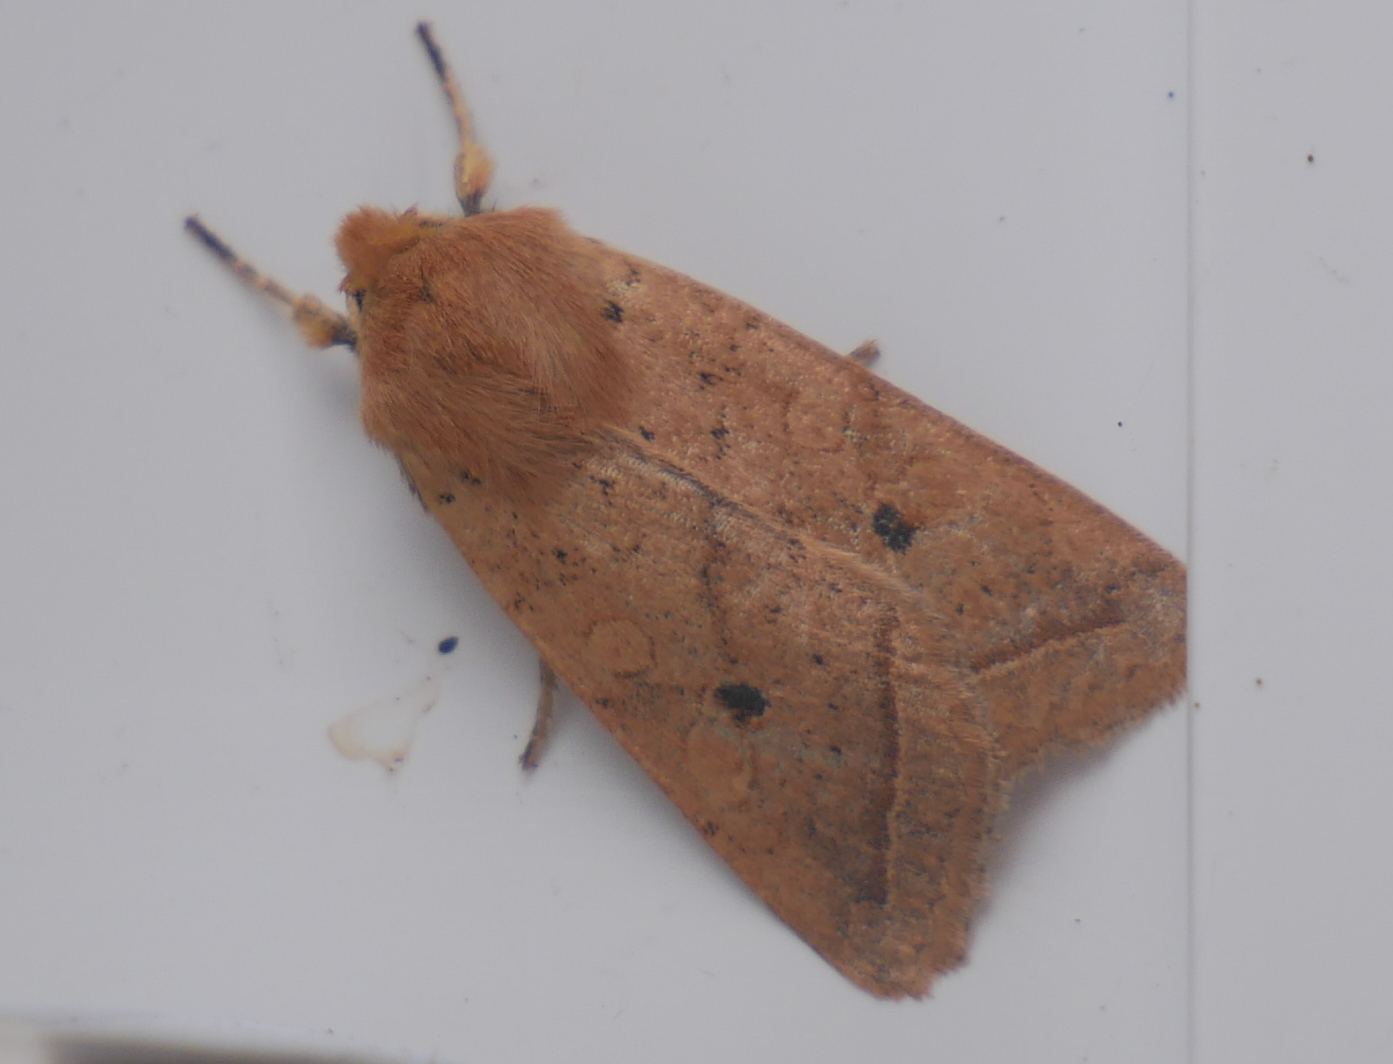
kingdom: Animalia
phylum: Arthropoda
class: Insecta
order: Lepidoptera
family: Noctuidae
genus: Agrochola
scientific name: Agrochola macilenta
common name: Yellow-line quaker
